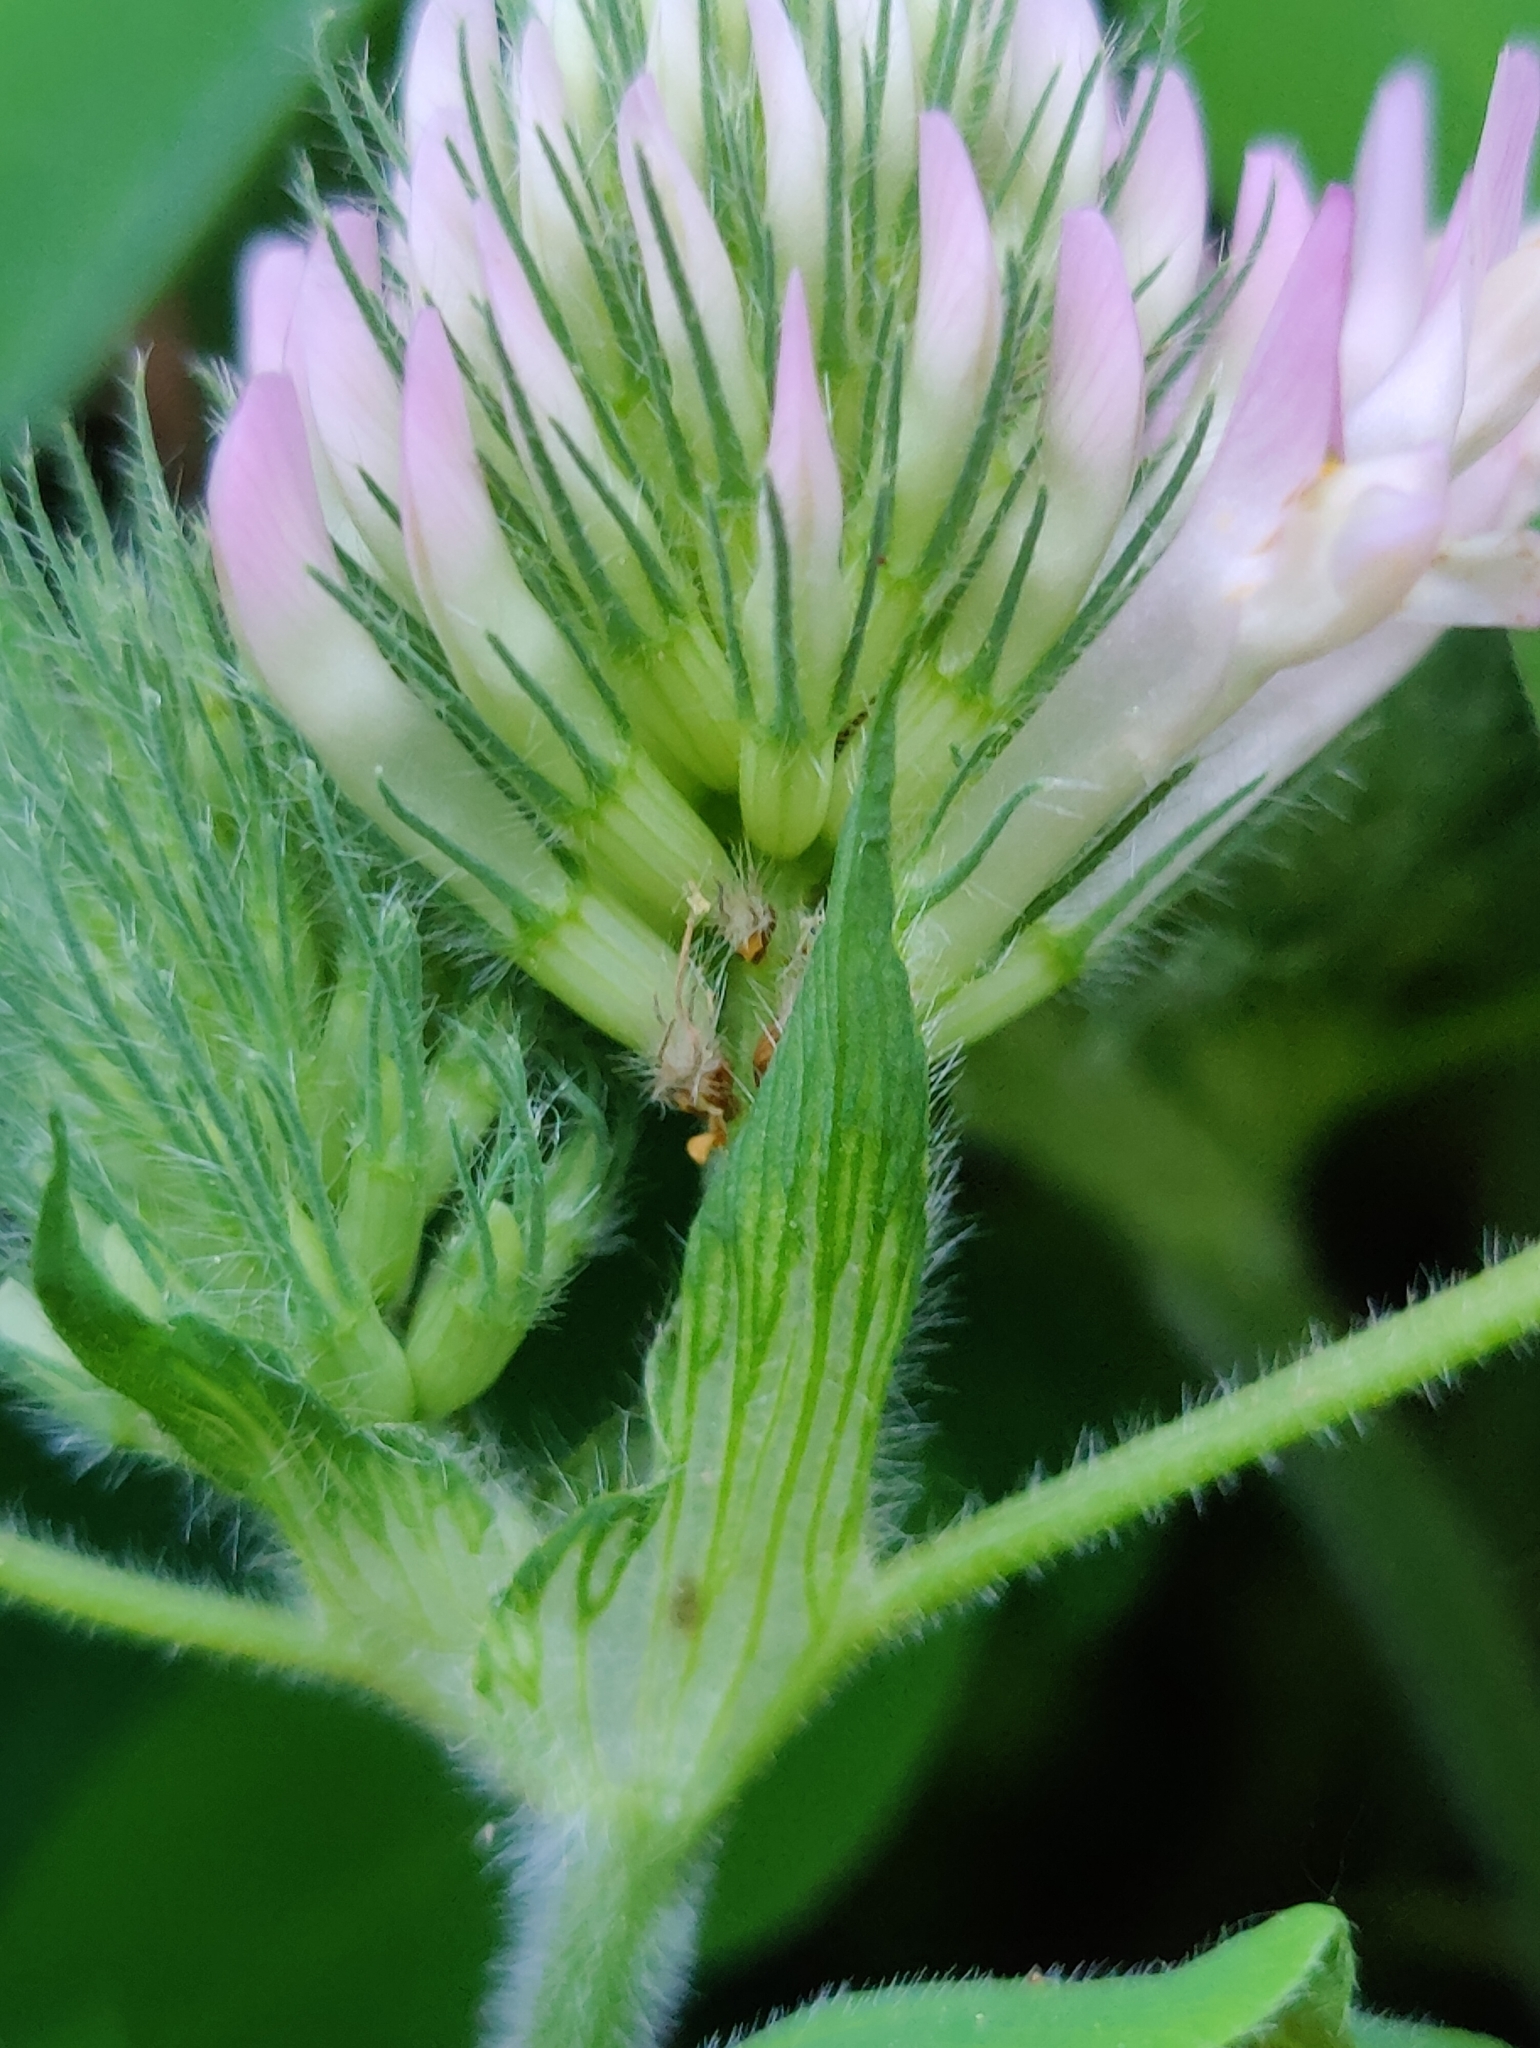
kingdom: Plantae
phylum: Tracheophyta
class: Magnoliopsida
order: Fabales
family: Fabaceae
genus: Trifolium
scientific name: Trifolium medium
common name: Zigzag clover
